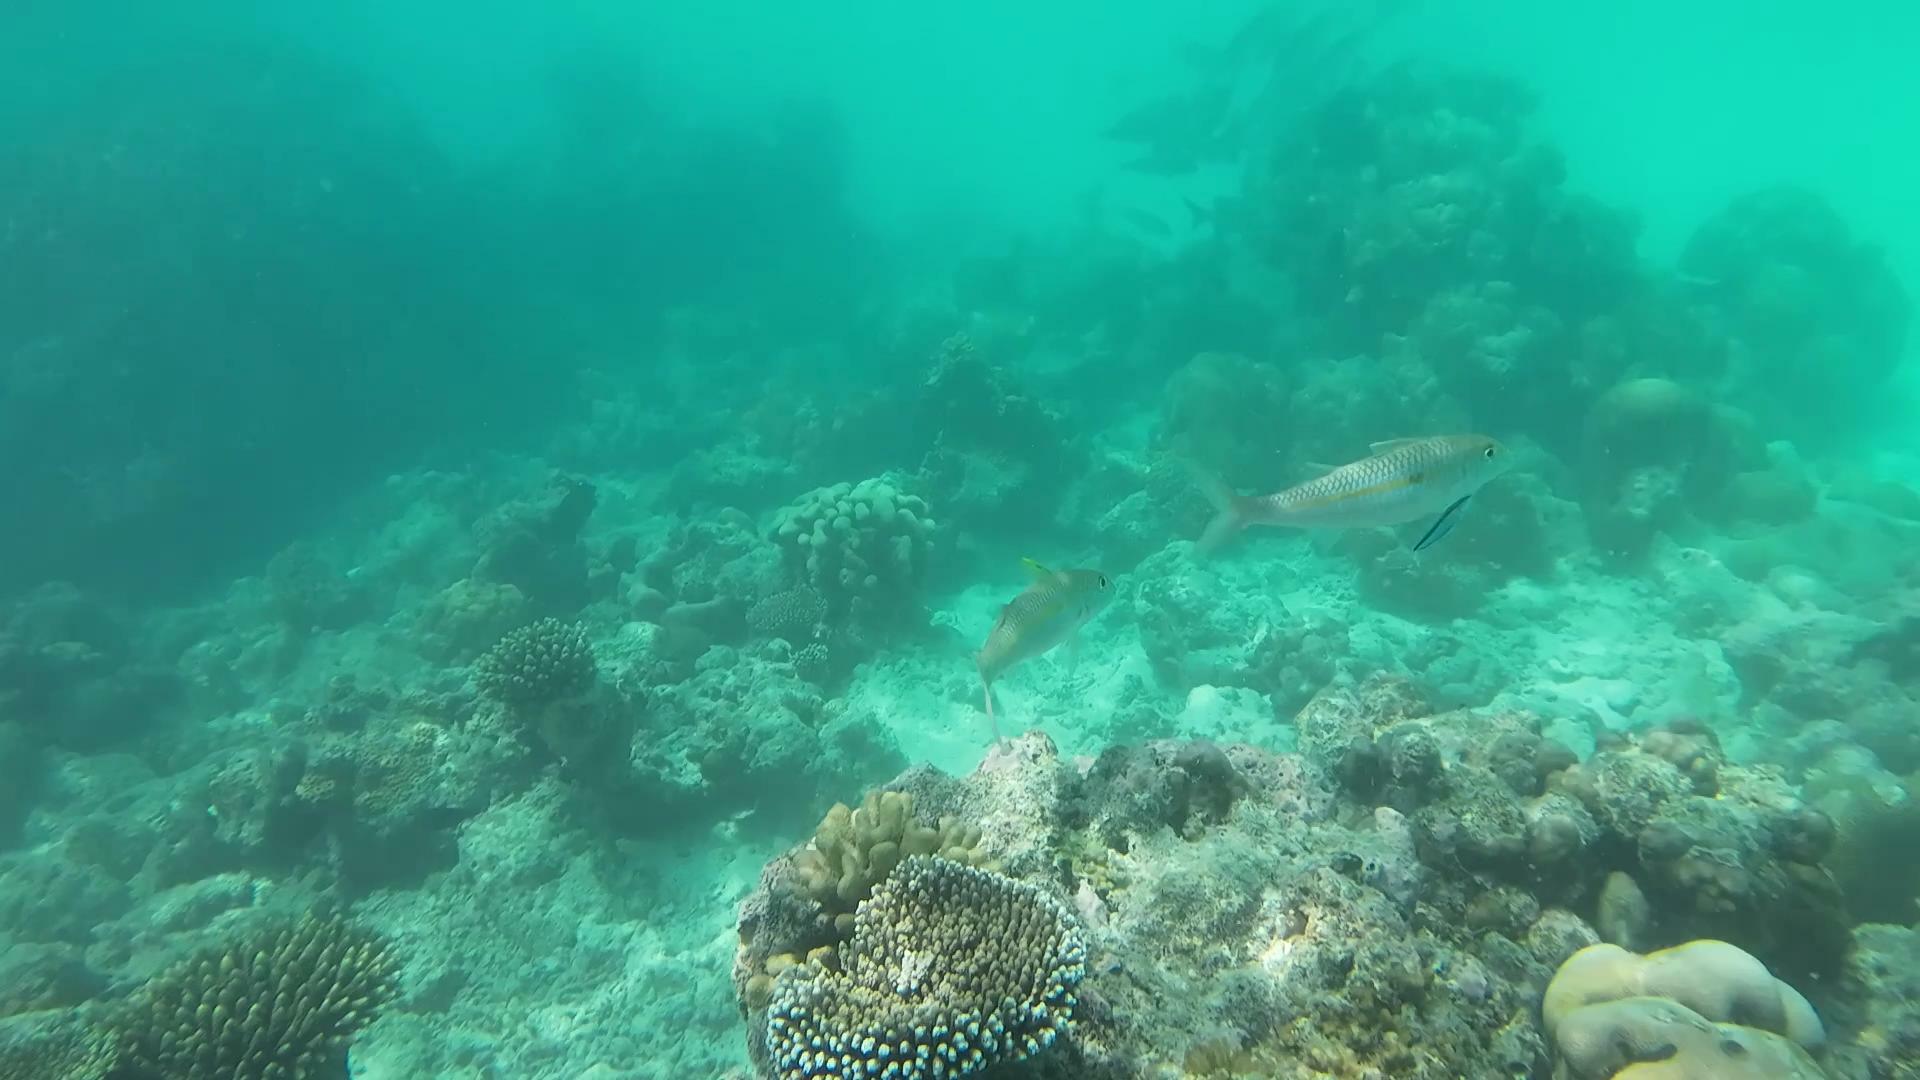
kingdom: Animalia
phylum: Chordata
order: Perciformes
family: Mullidae
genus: Mulloidichthys
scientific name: Mulloidichthys flavolineatus
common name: Yellowstripe goatfish
